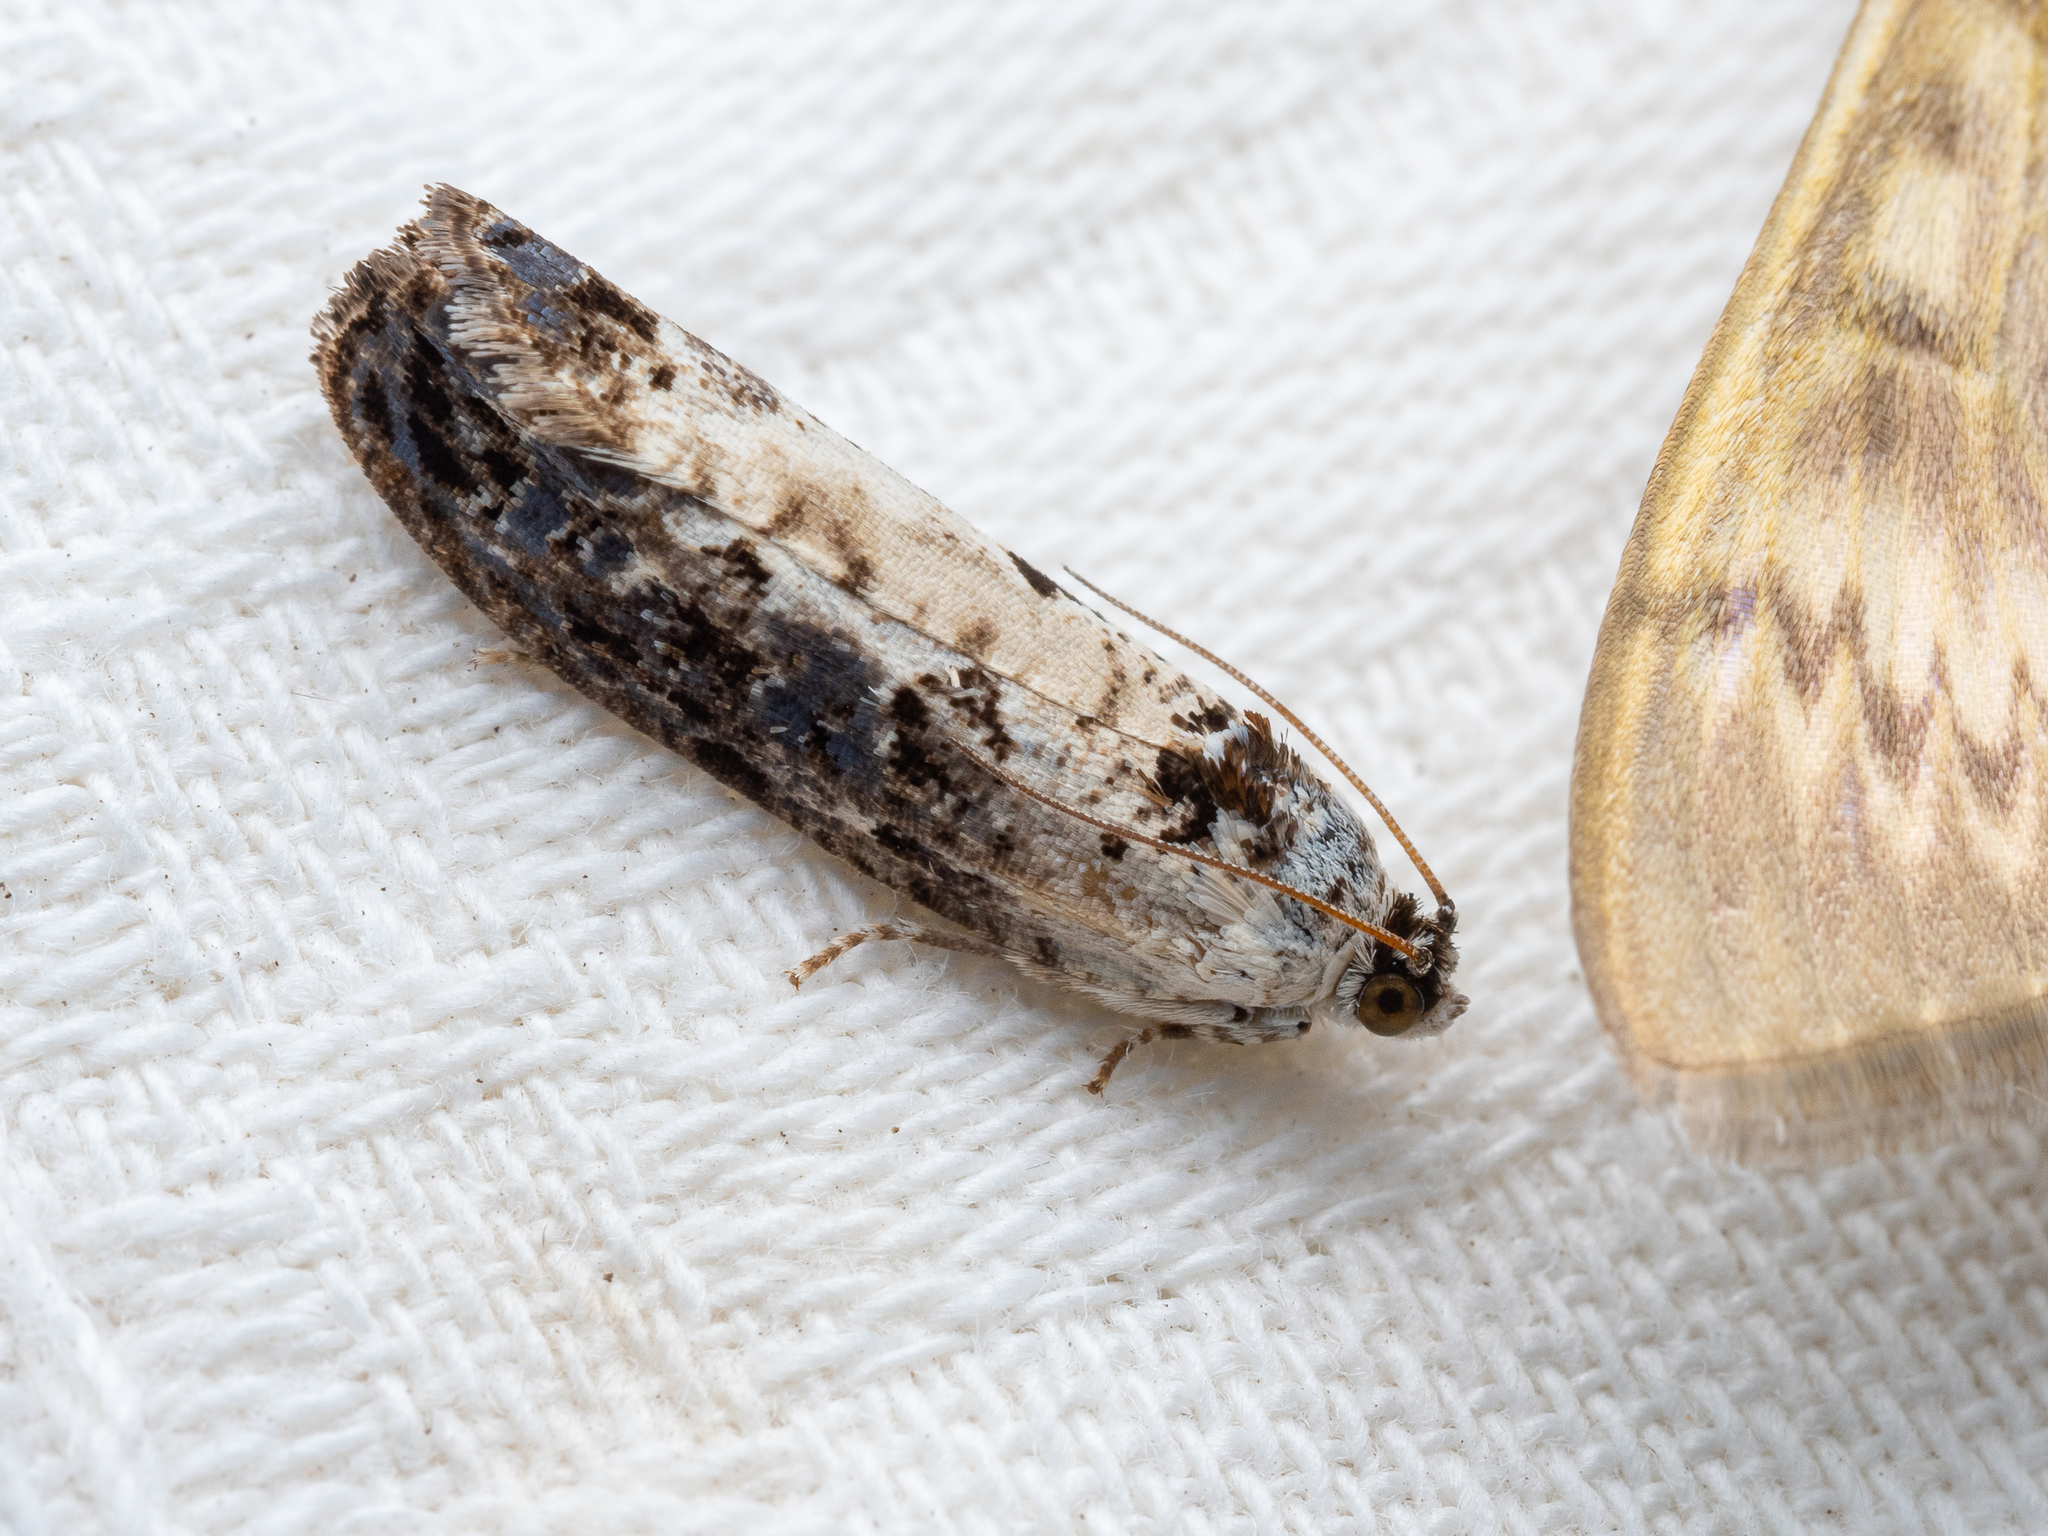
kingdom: Animalia
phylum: Arthropoda
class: Insecta
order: Lepidoptera
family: Tortricidae
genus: Hedya
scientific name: Hedya salicella
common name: Large tortricid moth
